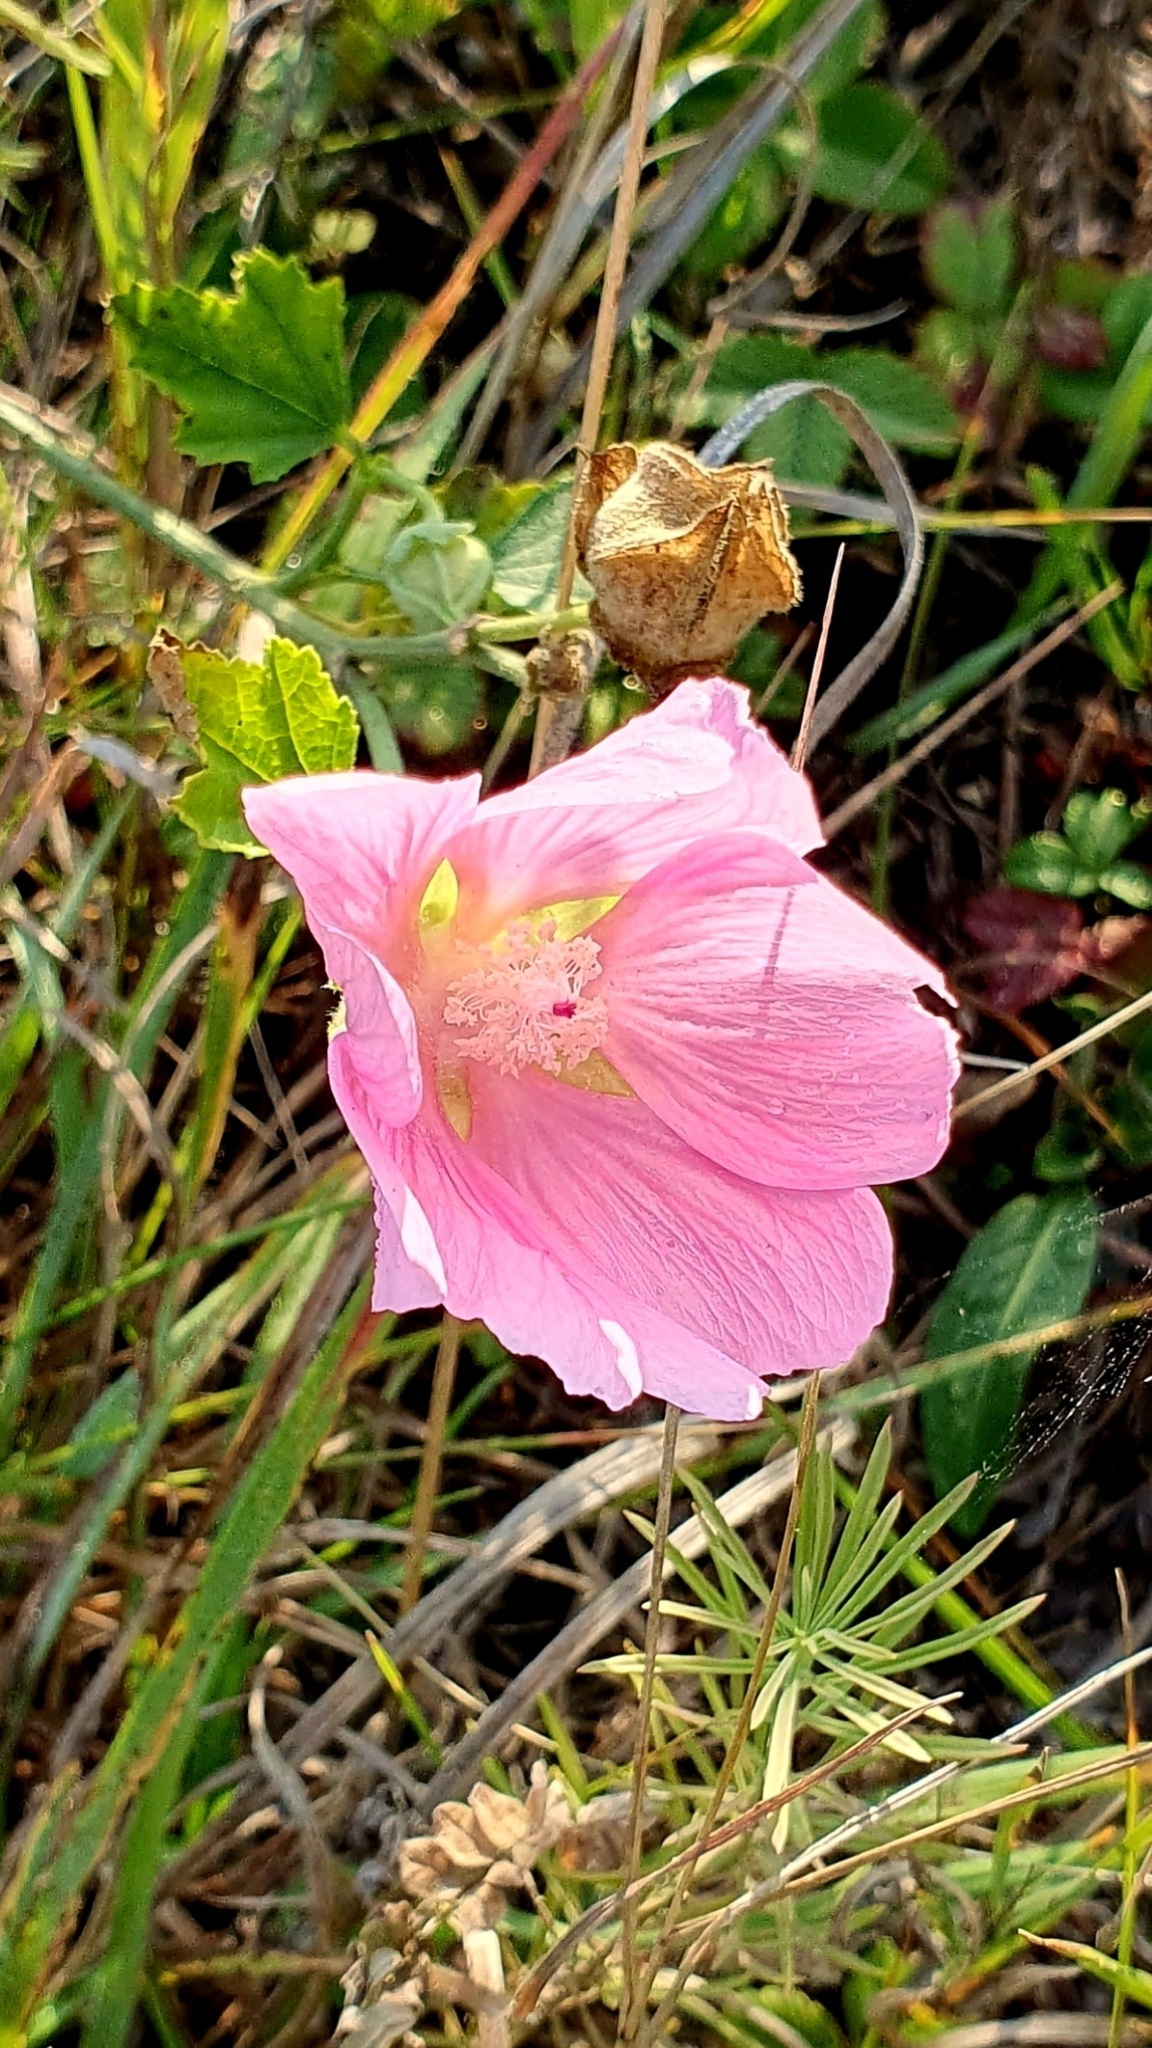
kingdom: Plantae
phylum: Tracheophyta
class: Magnoliopsida
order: Malvales
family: Malvaceae
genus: Malva
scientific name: Malva thuringiaca
